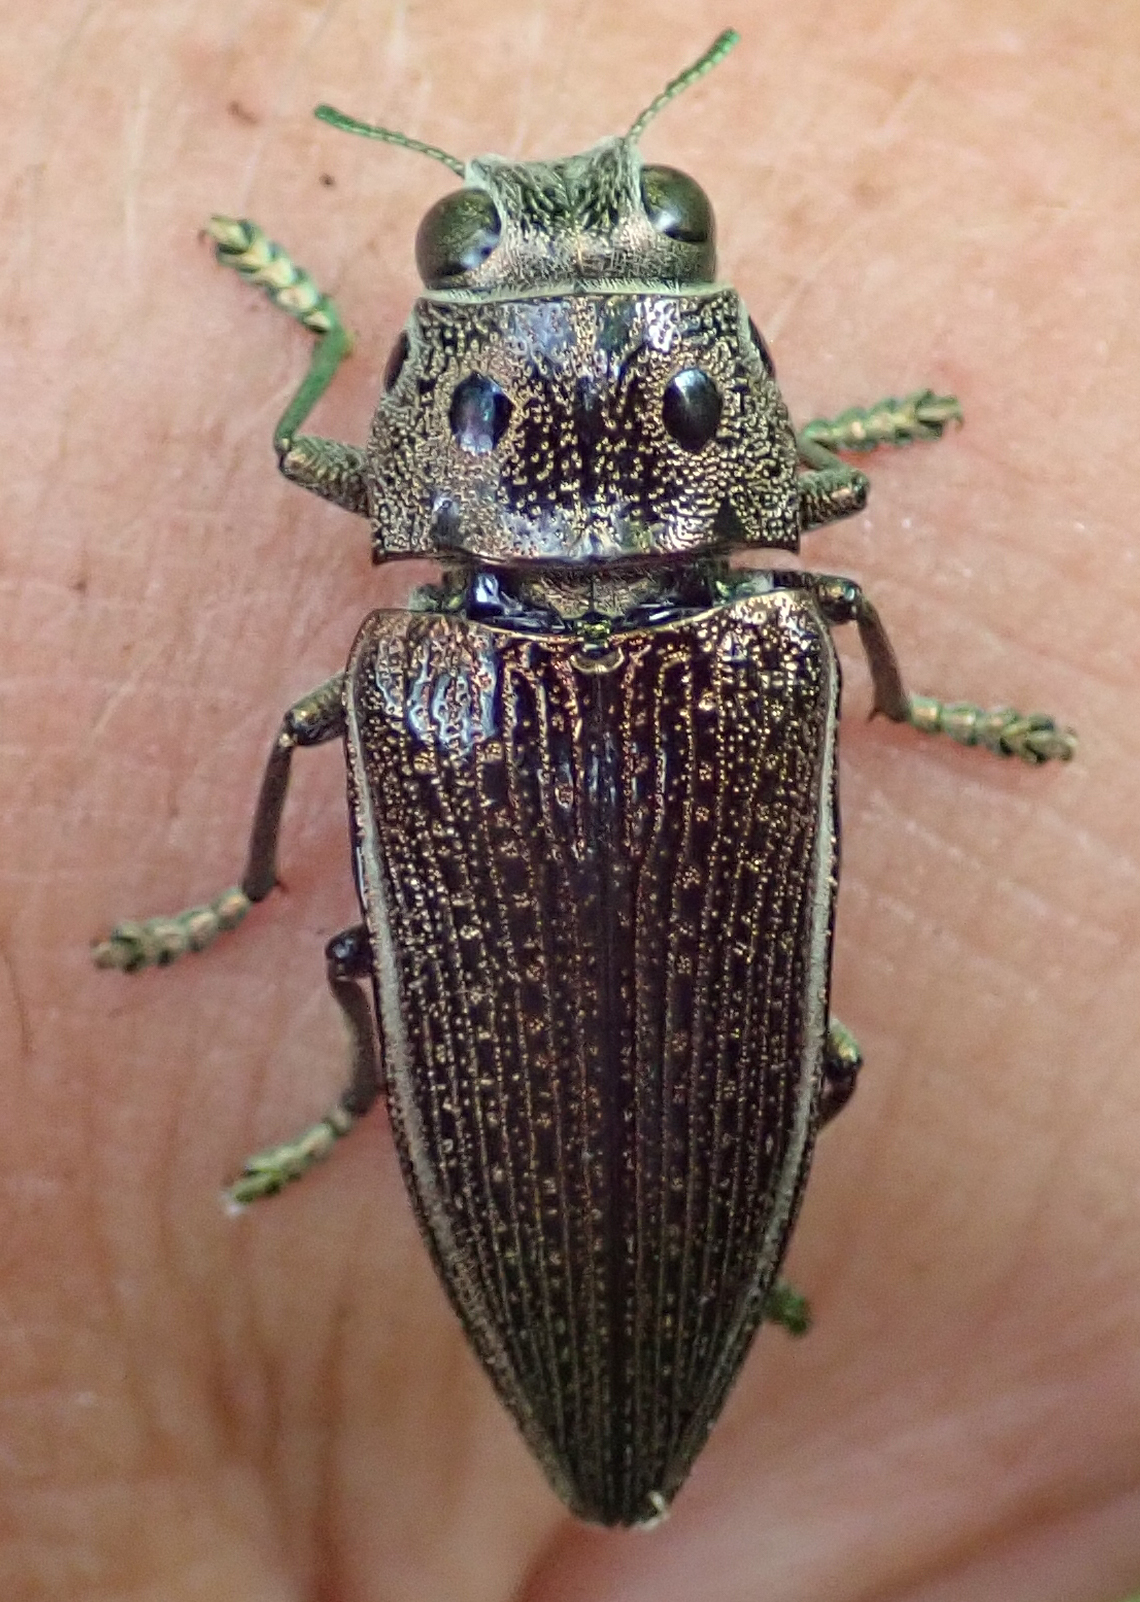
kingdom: Animalia
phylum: Arthropoda
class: Insecta
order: Coleoptera
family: Buprestidae
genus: Lampetis
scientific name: Lampetis quadriareolata
